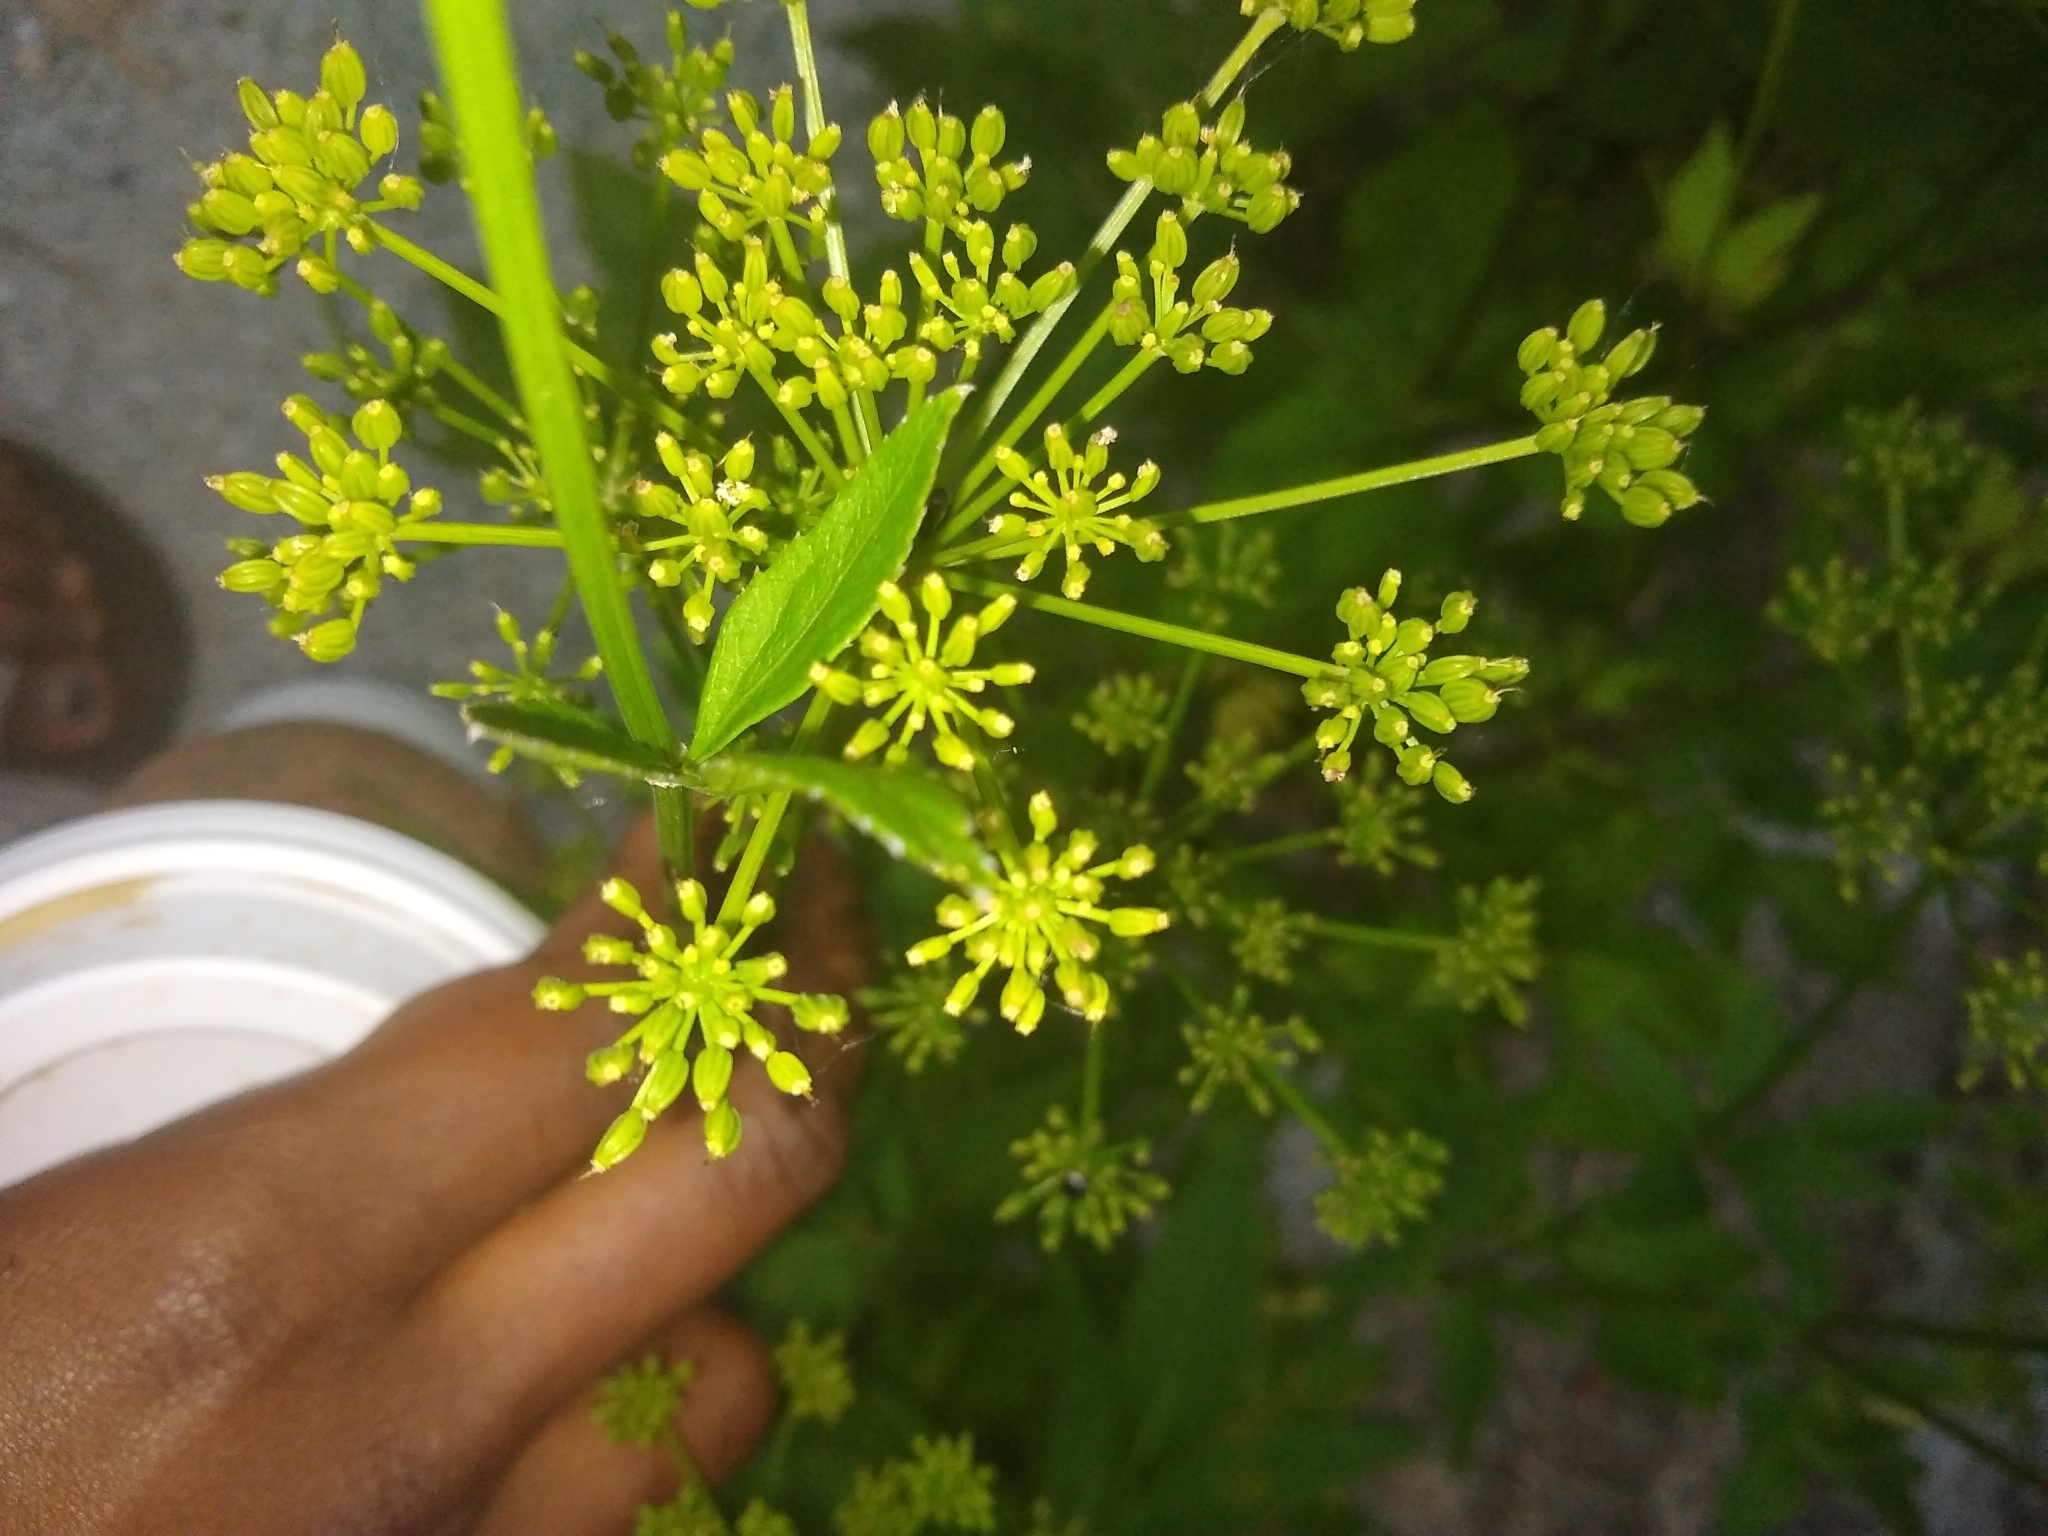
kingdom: Plantae
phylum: Tracheophyta
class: Magnoliopsida
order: Apiales
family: Apiaceae
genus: Zizia
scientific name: Zizia aurea
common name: Golden alexanders
